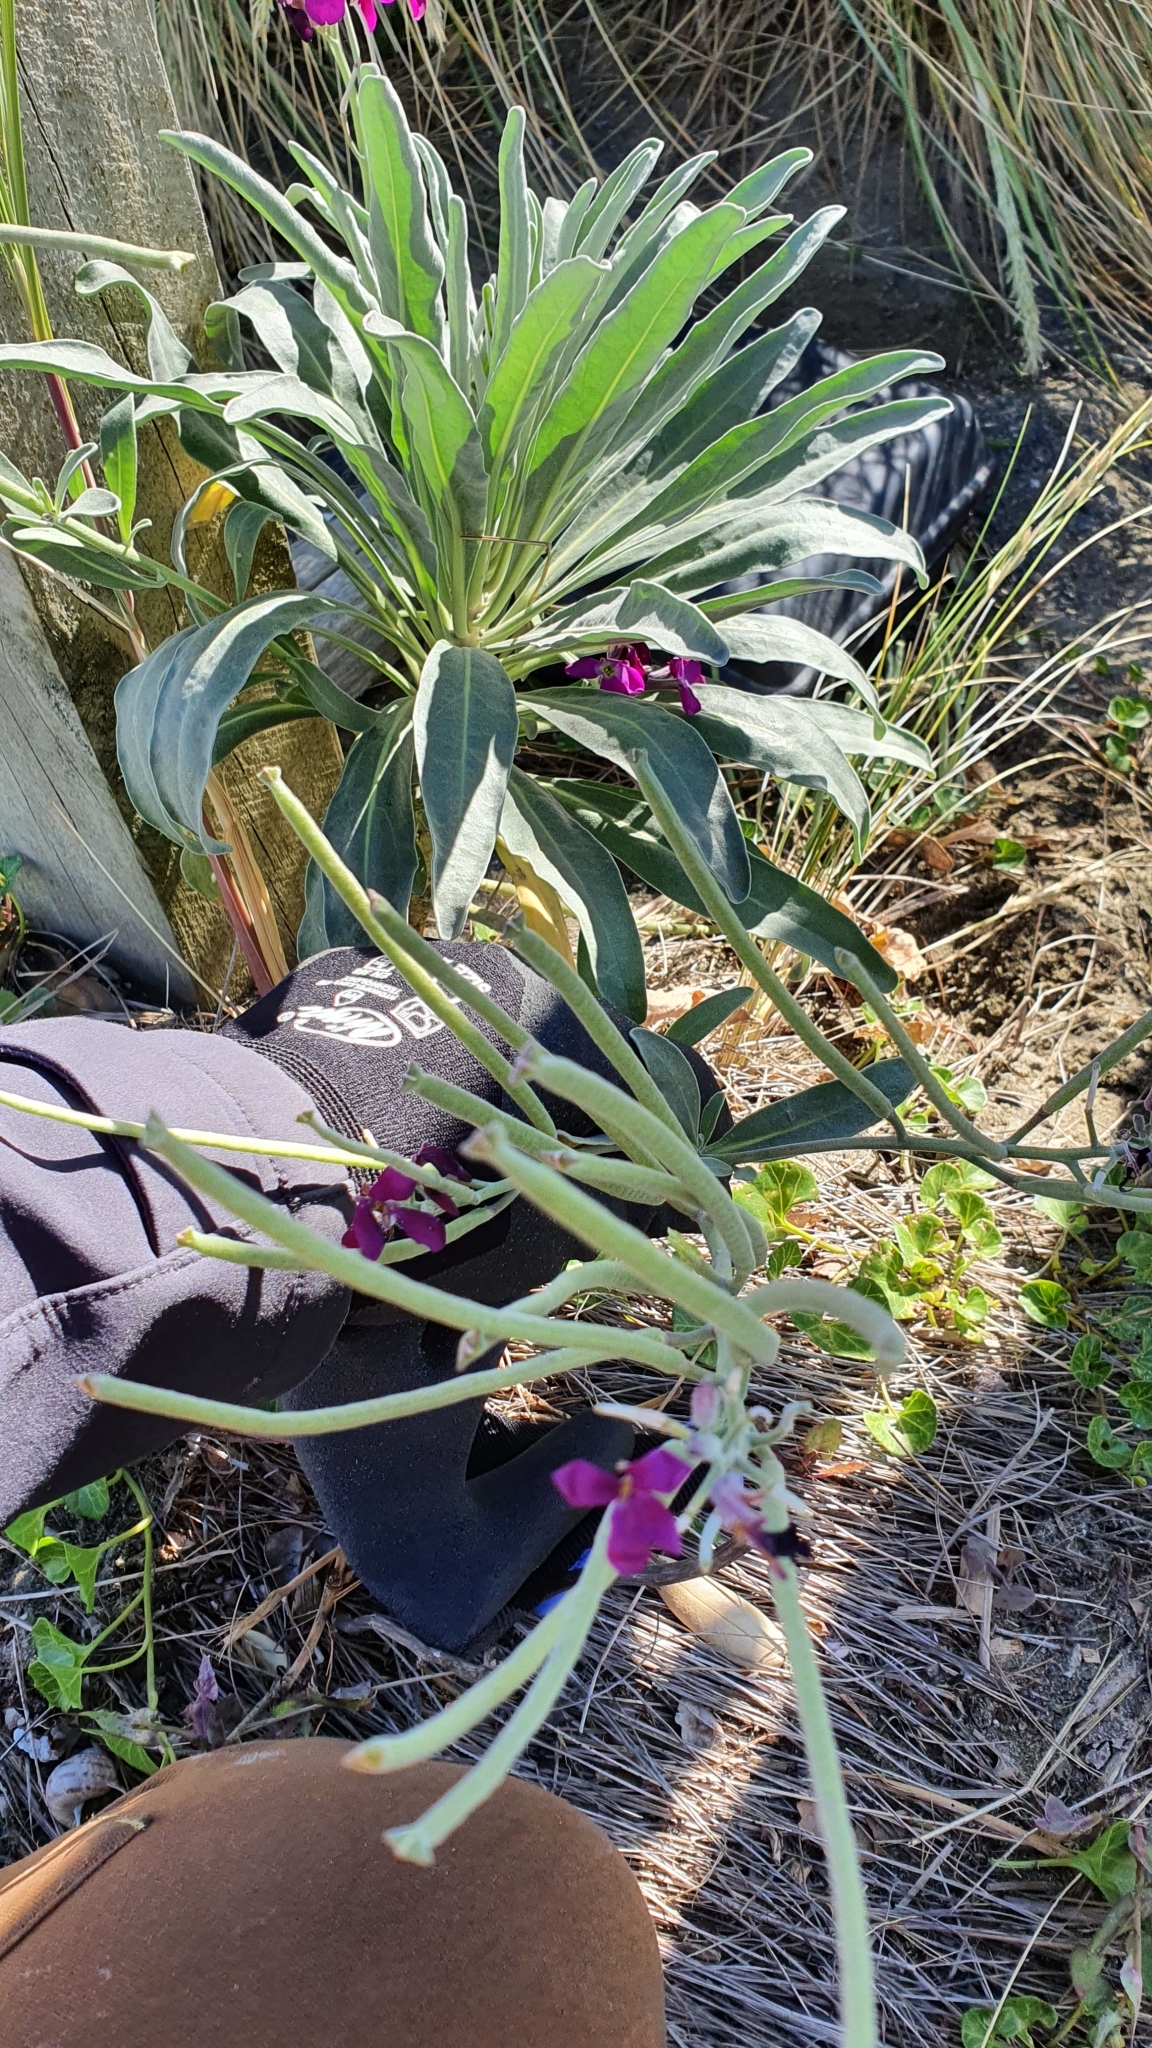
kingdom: Plantae
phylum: Tracheophyta
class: Magnoliopsida
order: Brassicales
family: Brassicaceae
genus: Matthiola
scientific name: Matthiola incana
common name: Hoary stock
